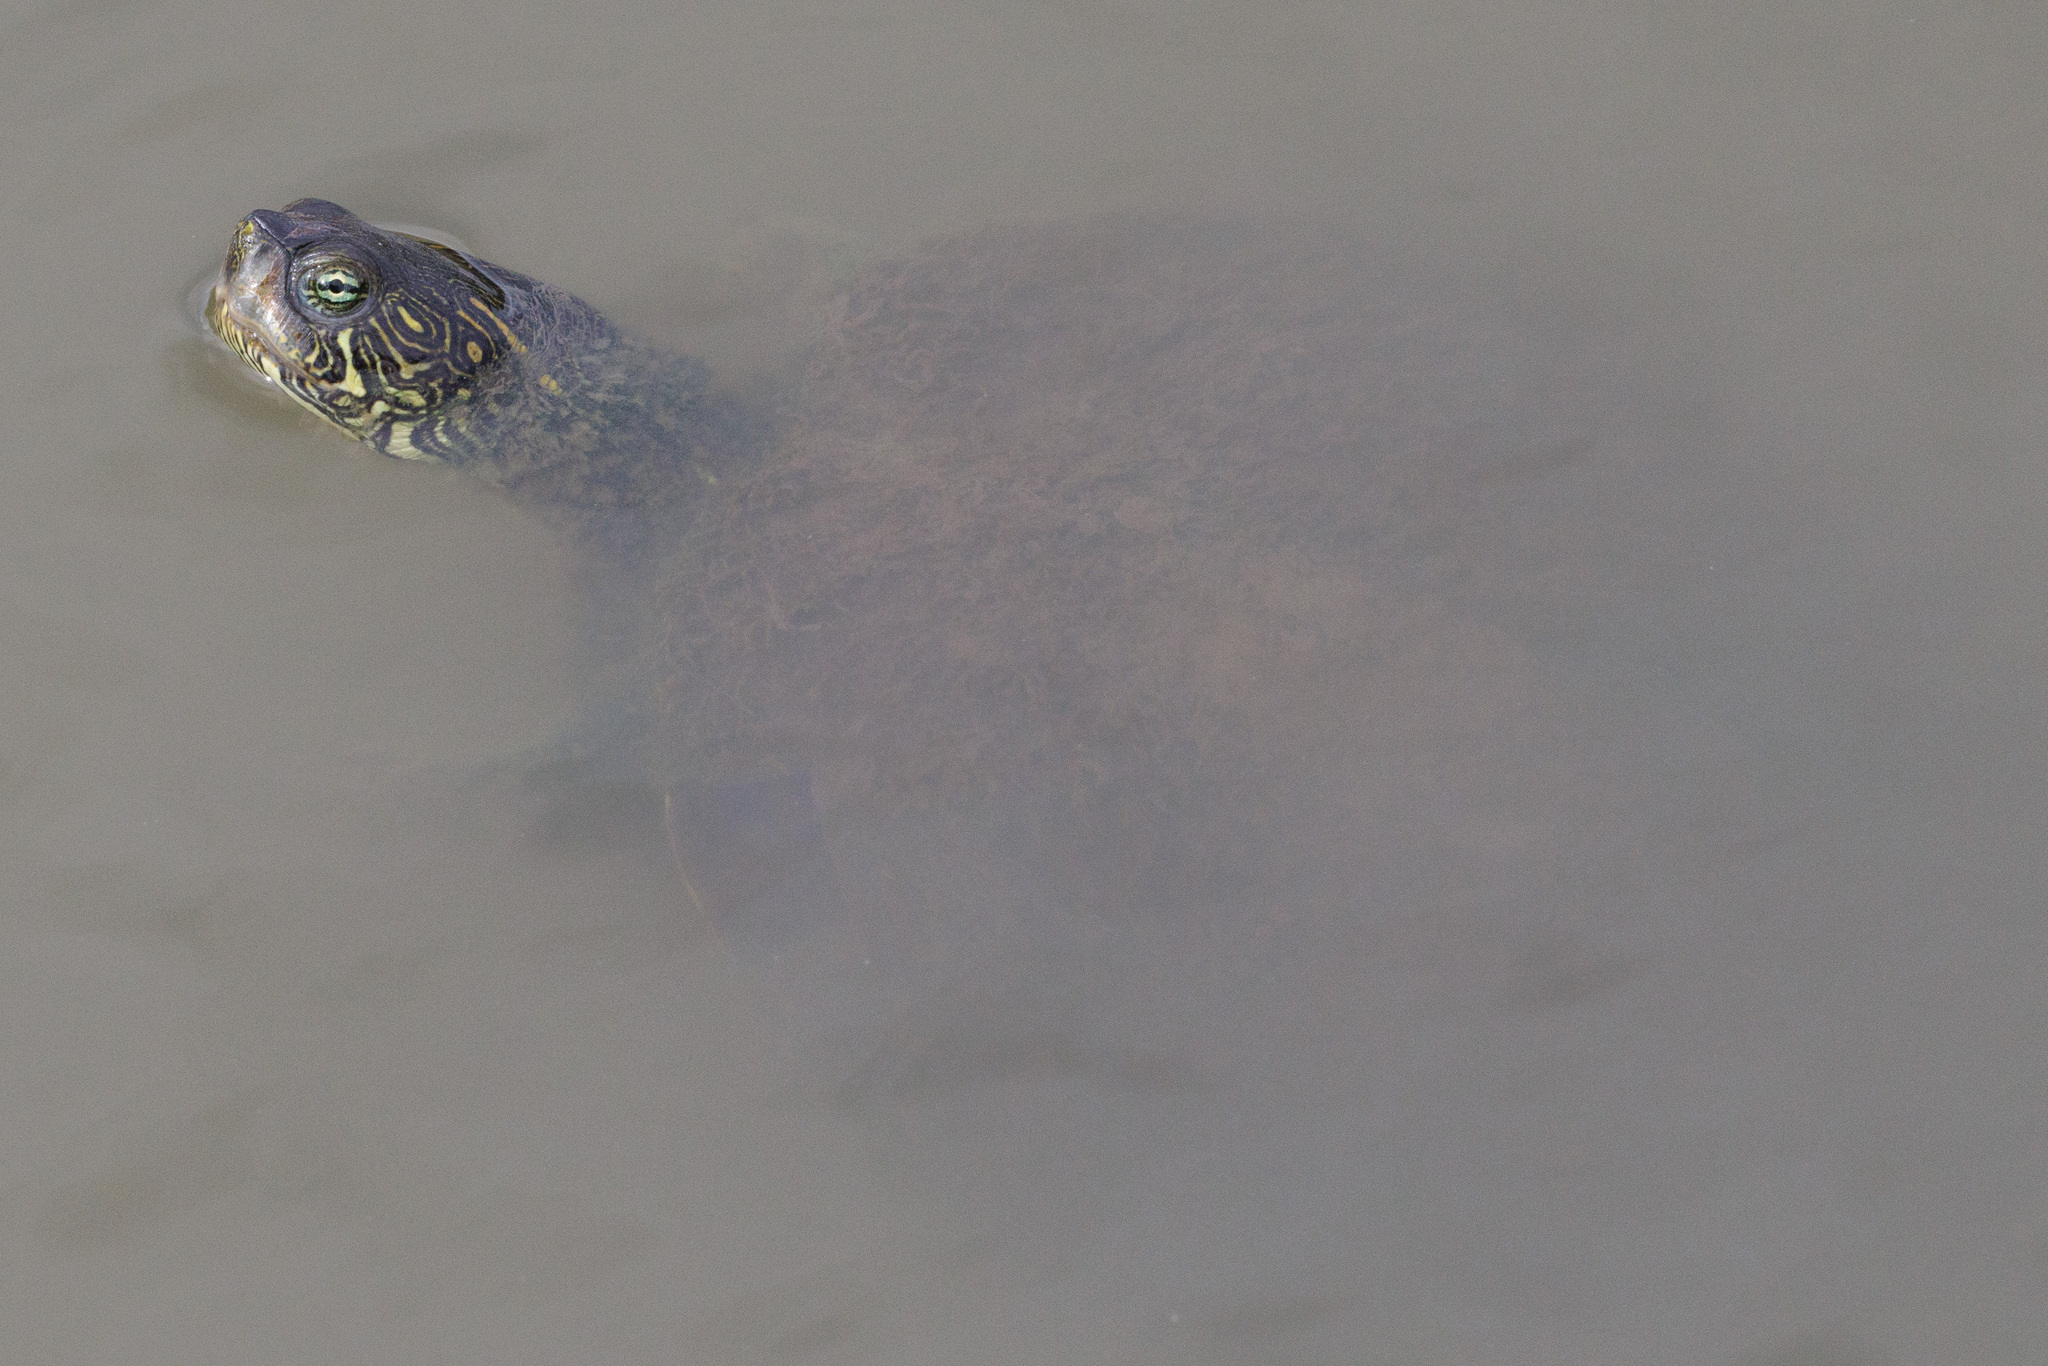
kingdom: Animalia
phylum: Chordata
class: Testudines
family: Emydidae
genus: Pseudemys
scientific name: Pseudemys texana
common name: Texas river cooter
